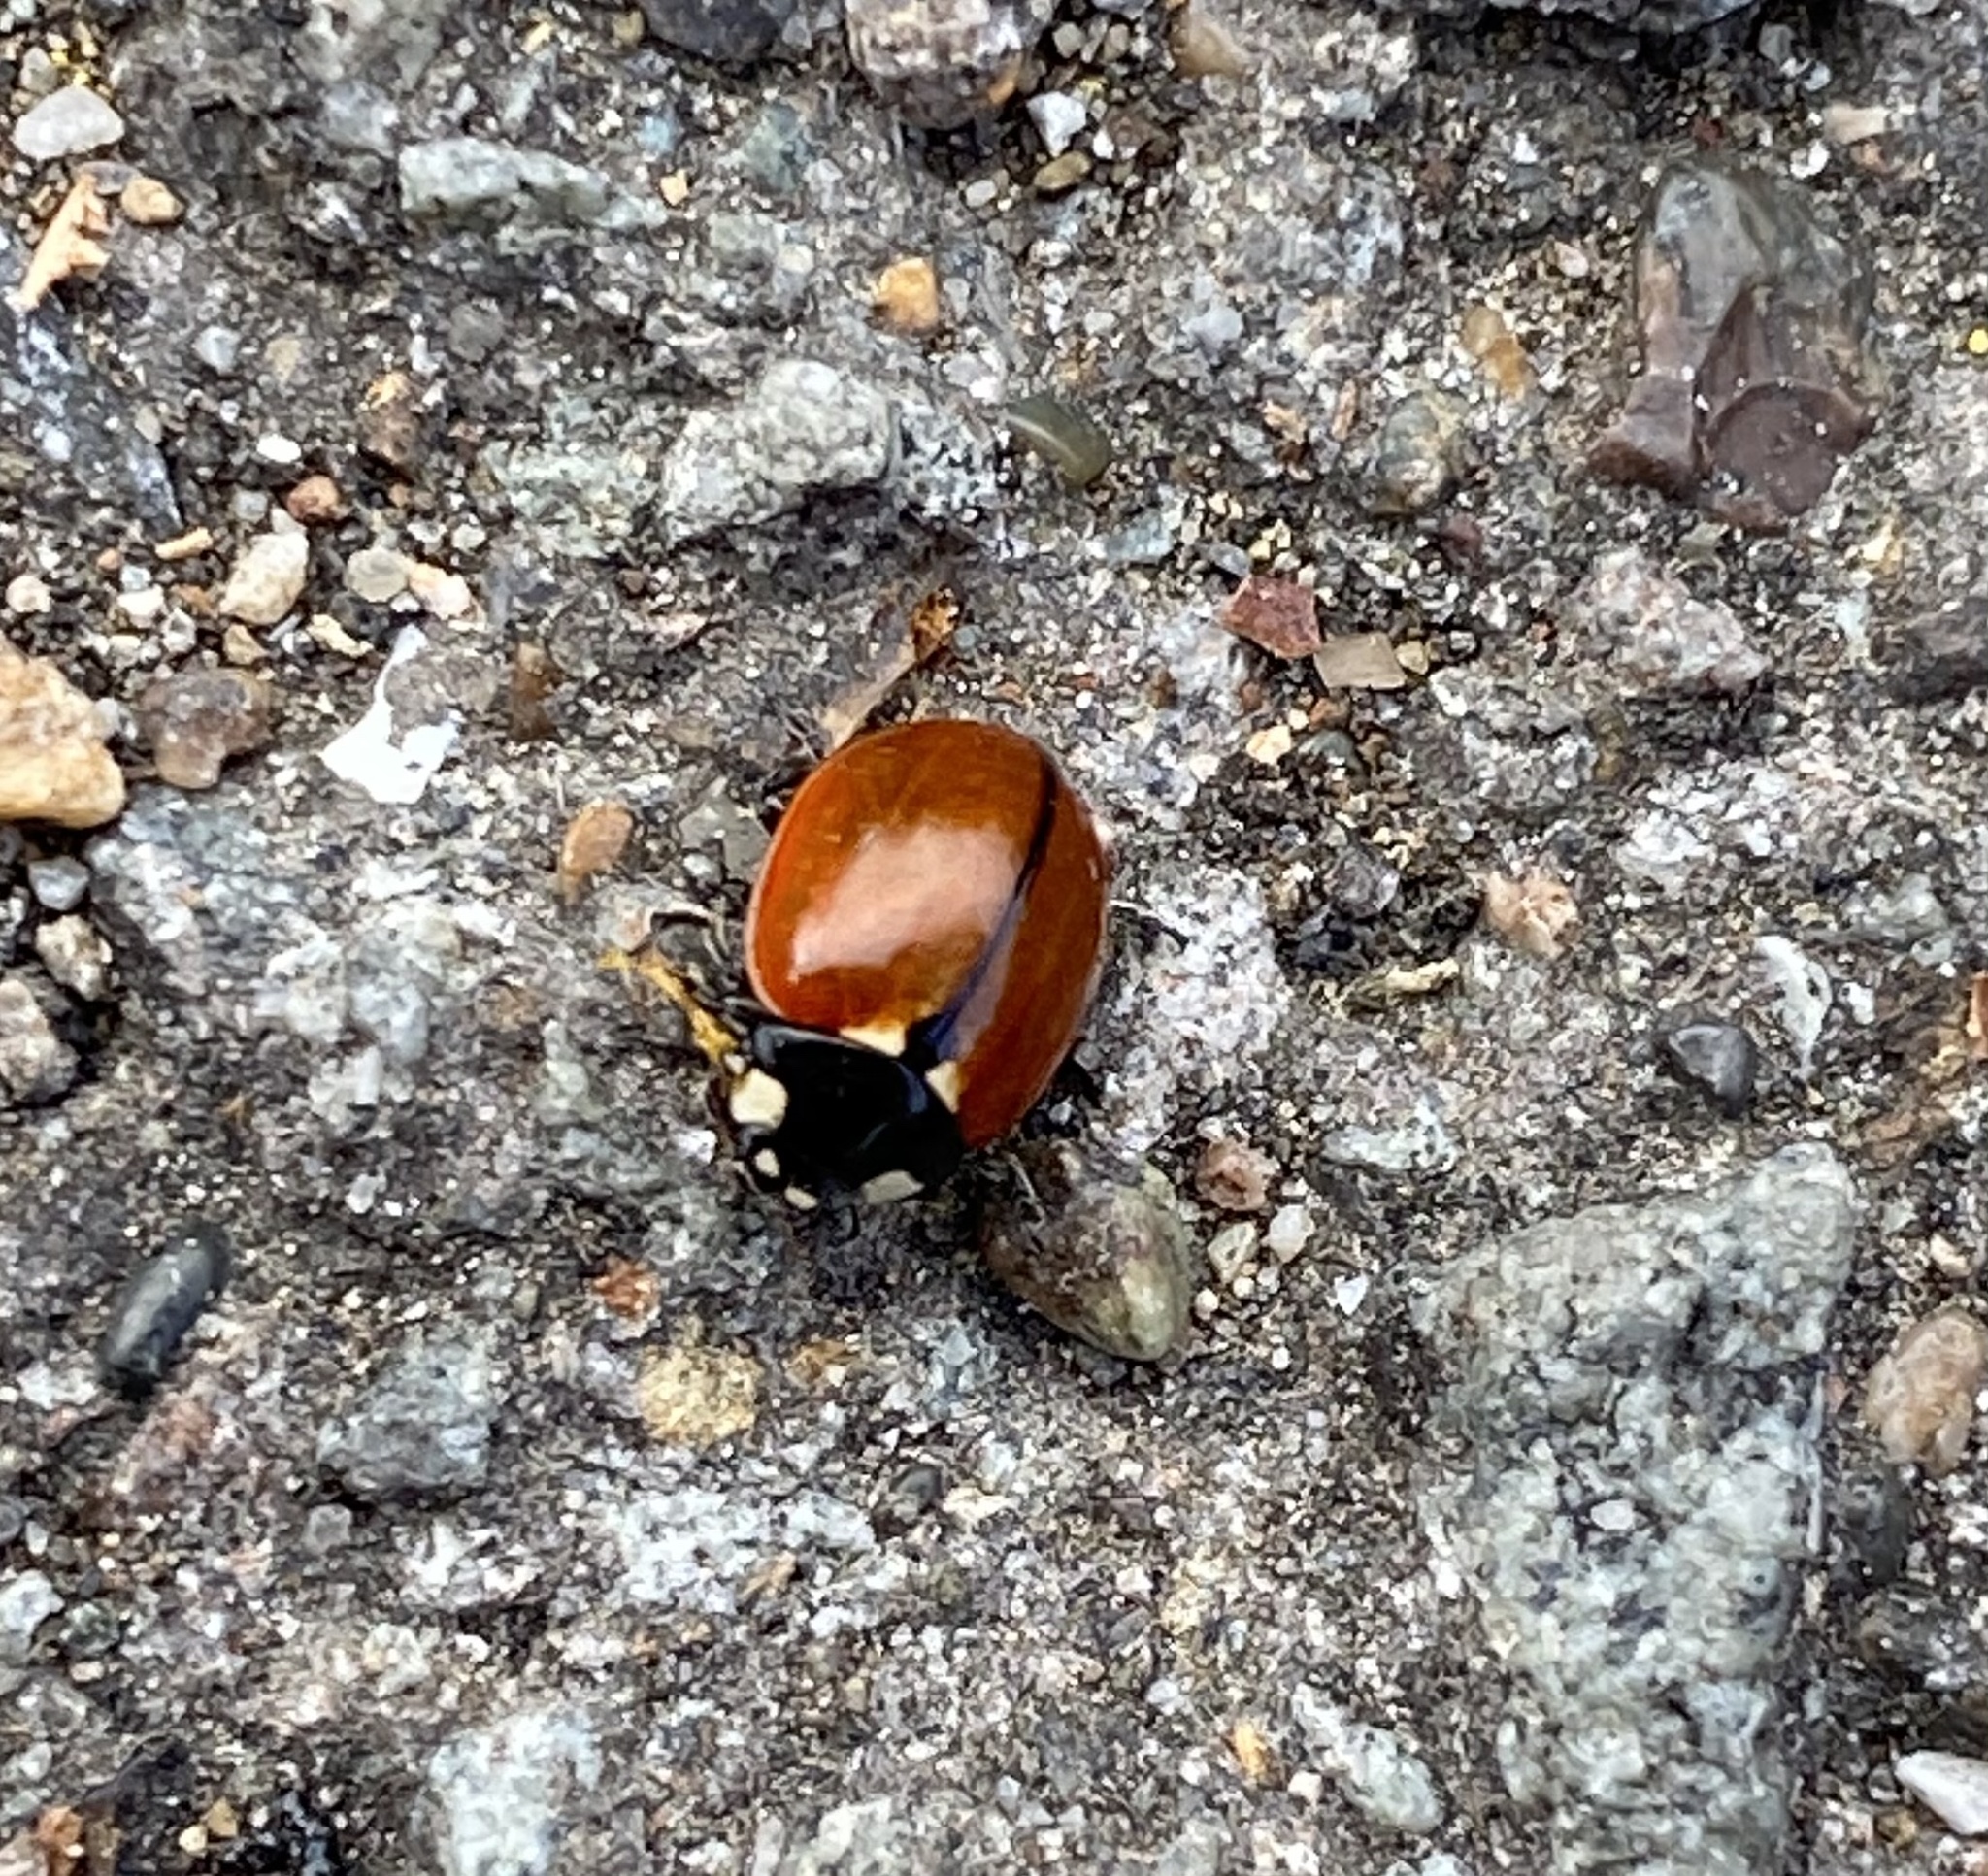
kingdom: Animalia
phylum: Arthropoda
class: Insecta
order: Coleoptera
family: Coccinellidae
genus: Coccinella
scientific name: Coccinella californica
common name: Lady beetle
